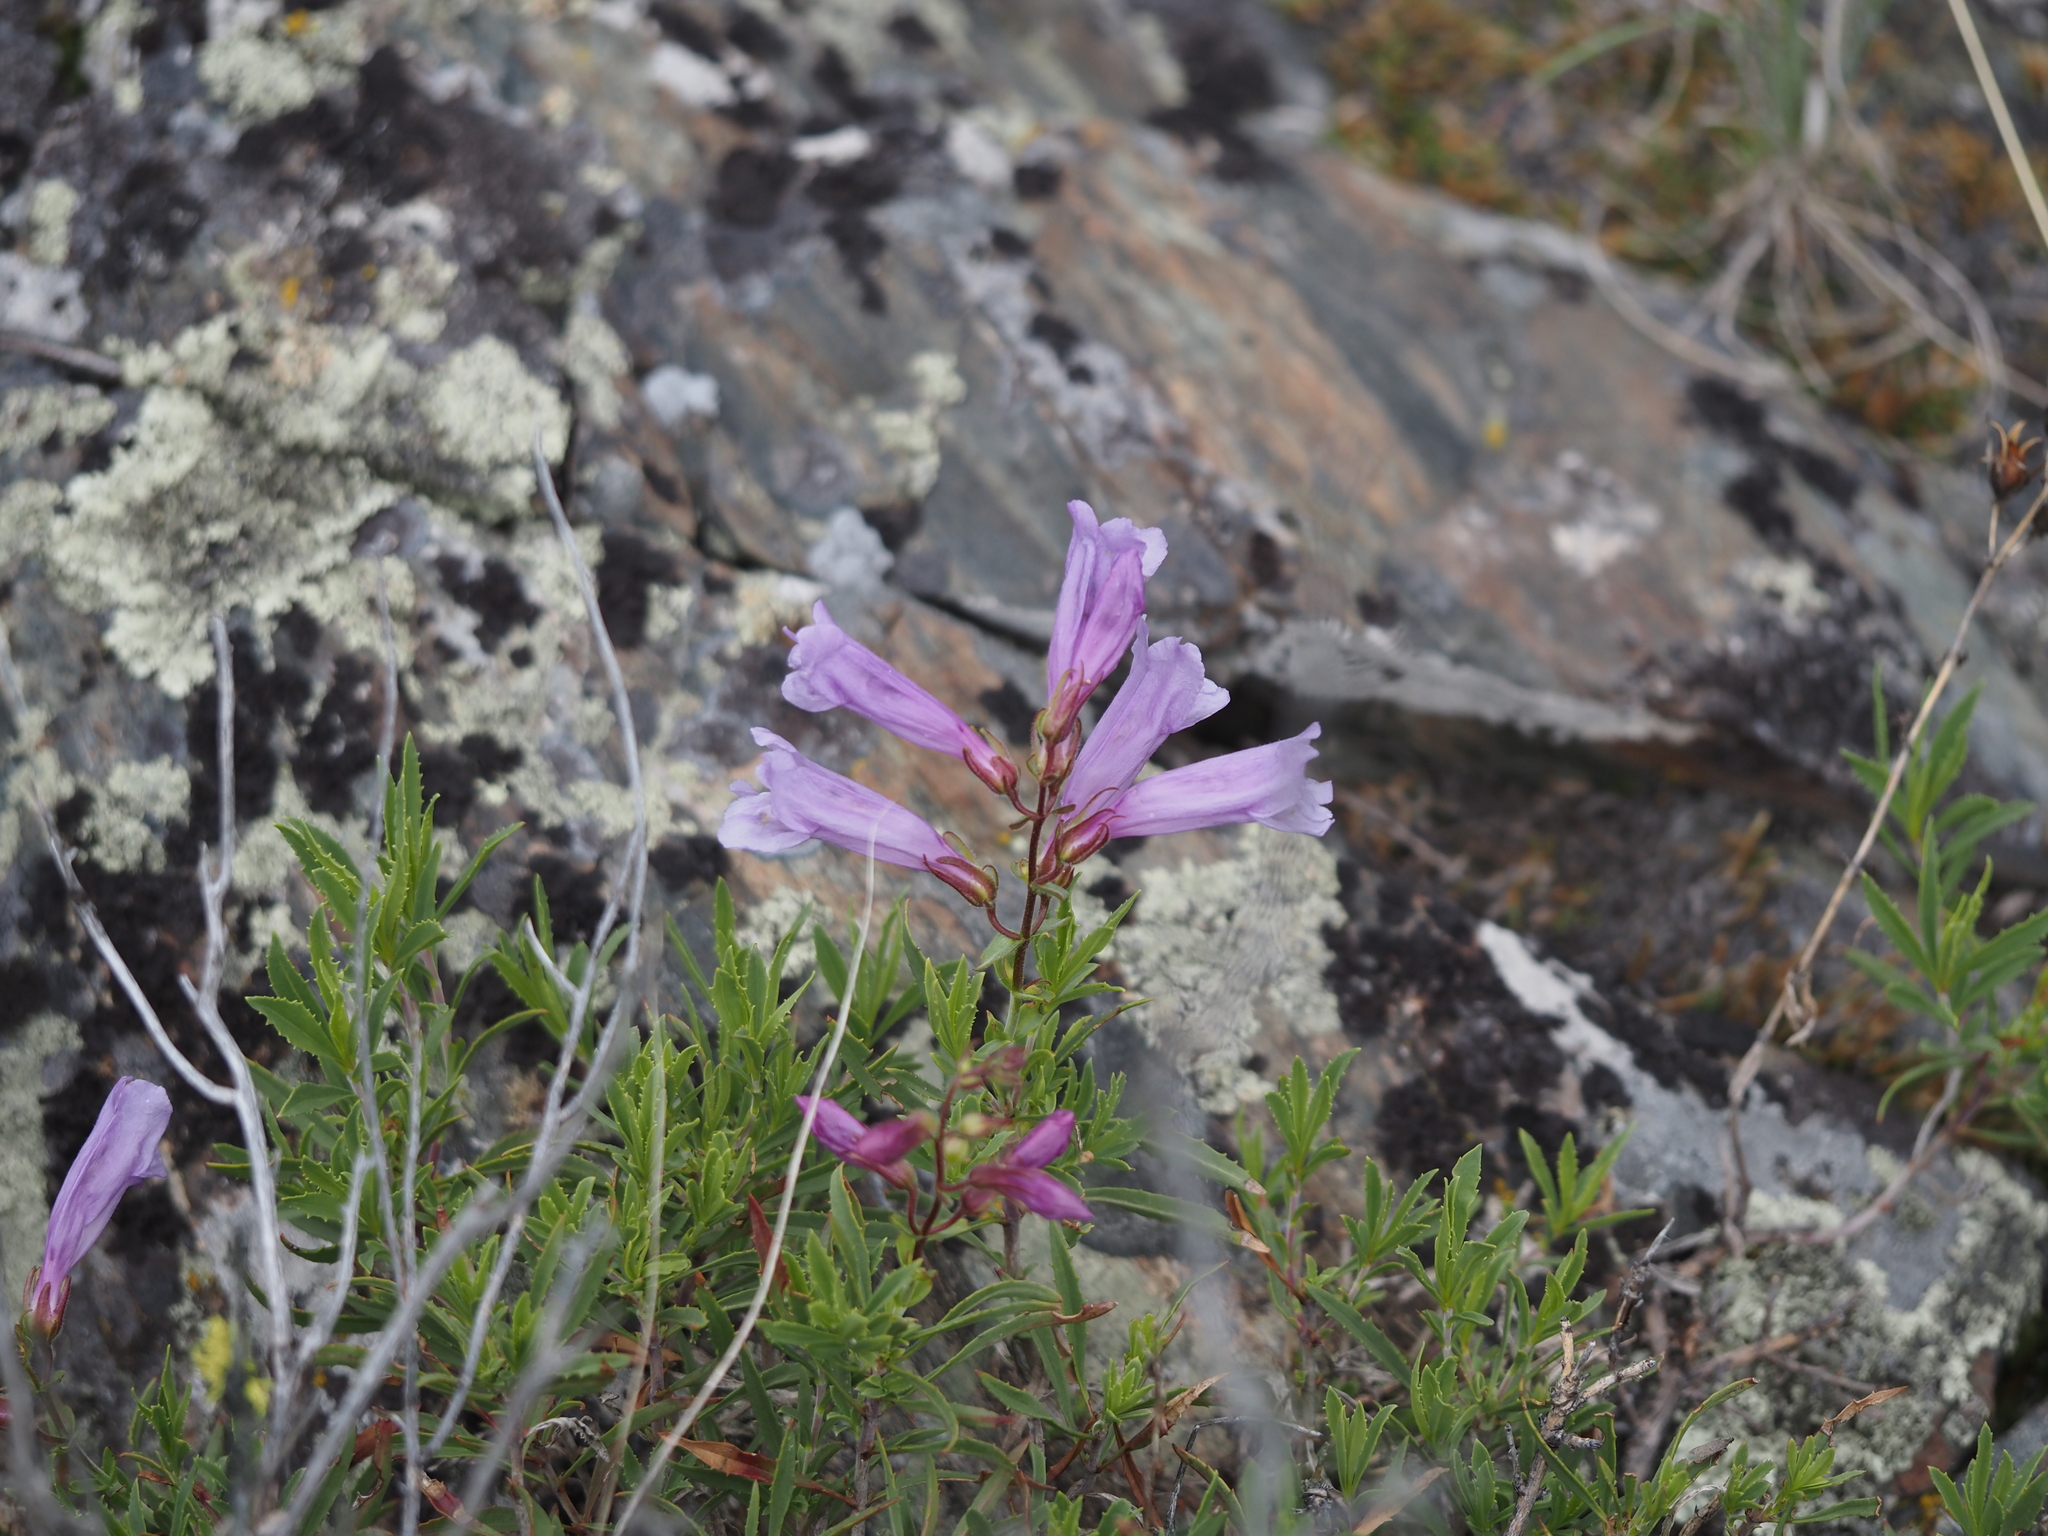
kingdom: Plantae
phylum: Tracheophyta
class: Magnoliopsida
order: Lamiales
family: Plantaginaceae
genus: Penstemon
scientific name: Penstemon fruticosus
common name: Bush penstemon
